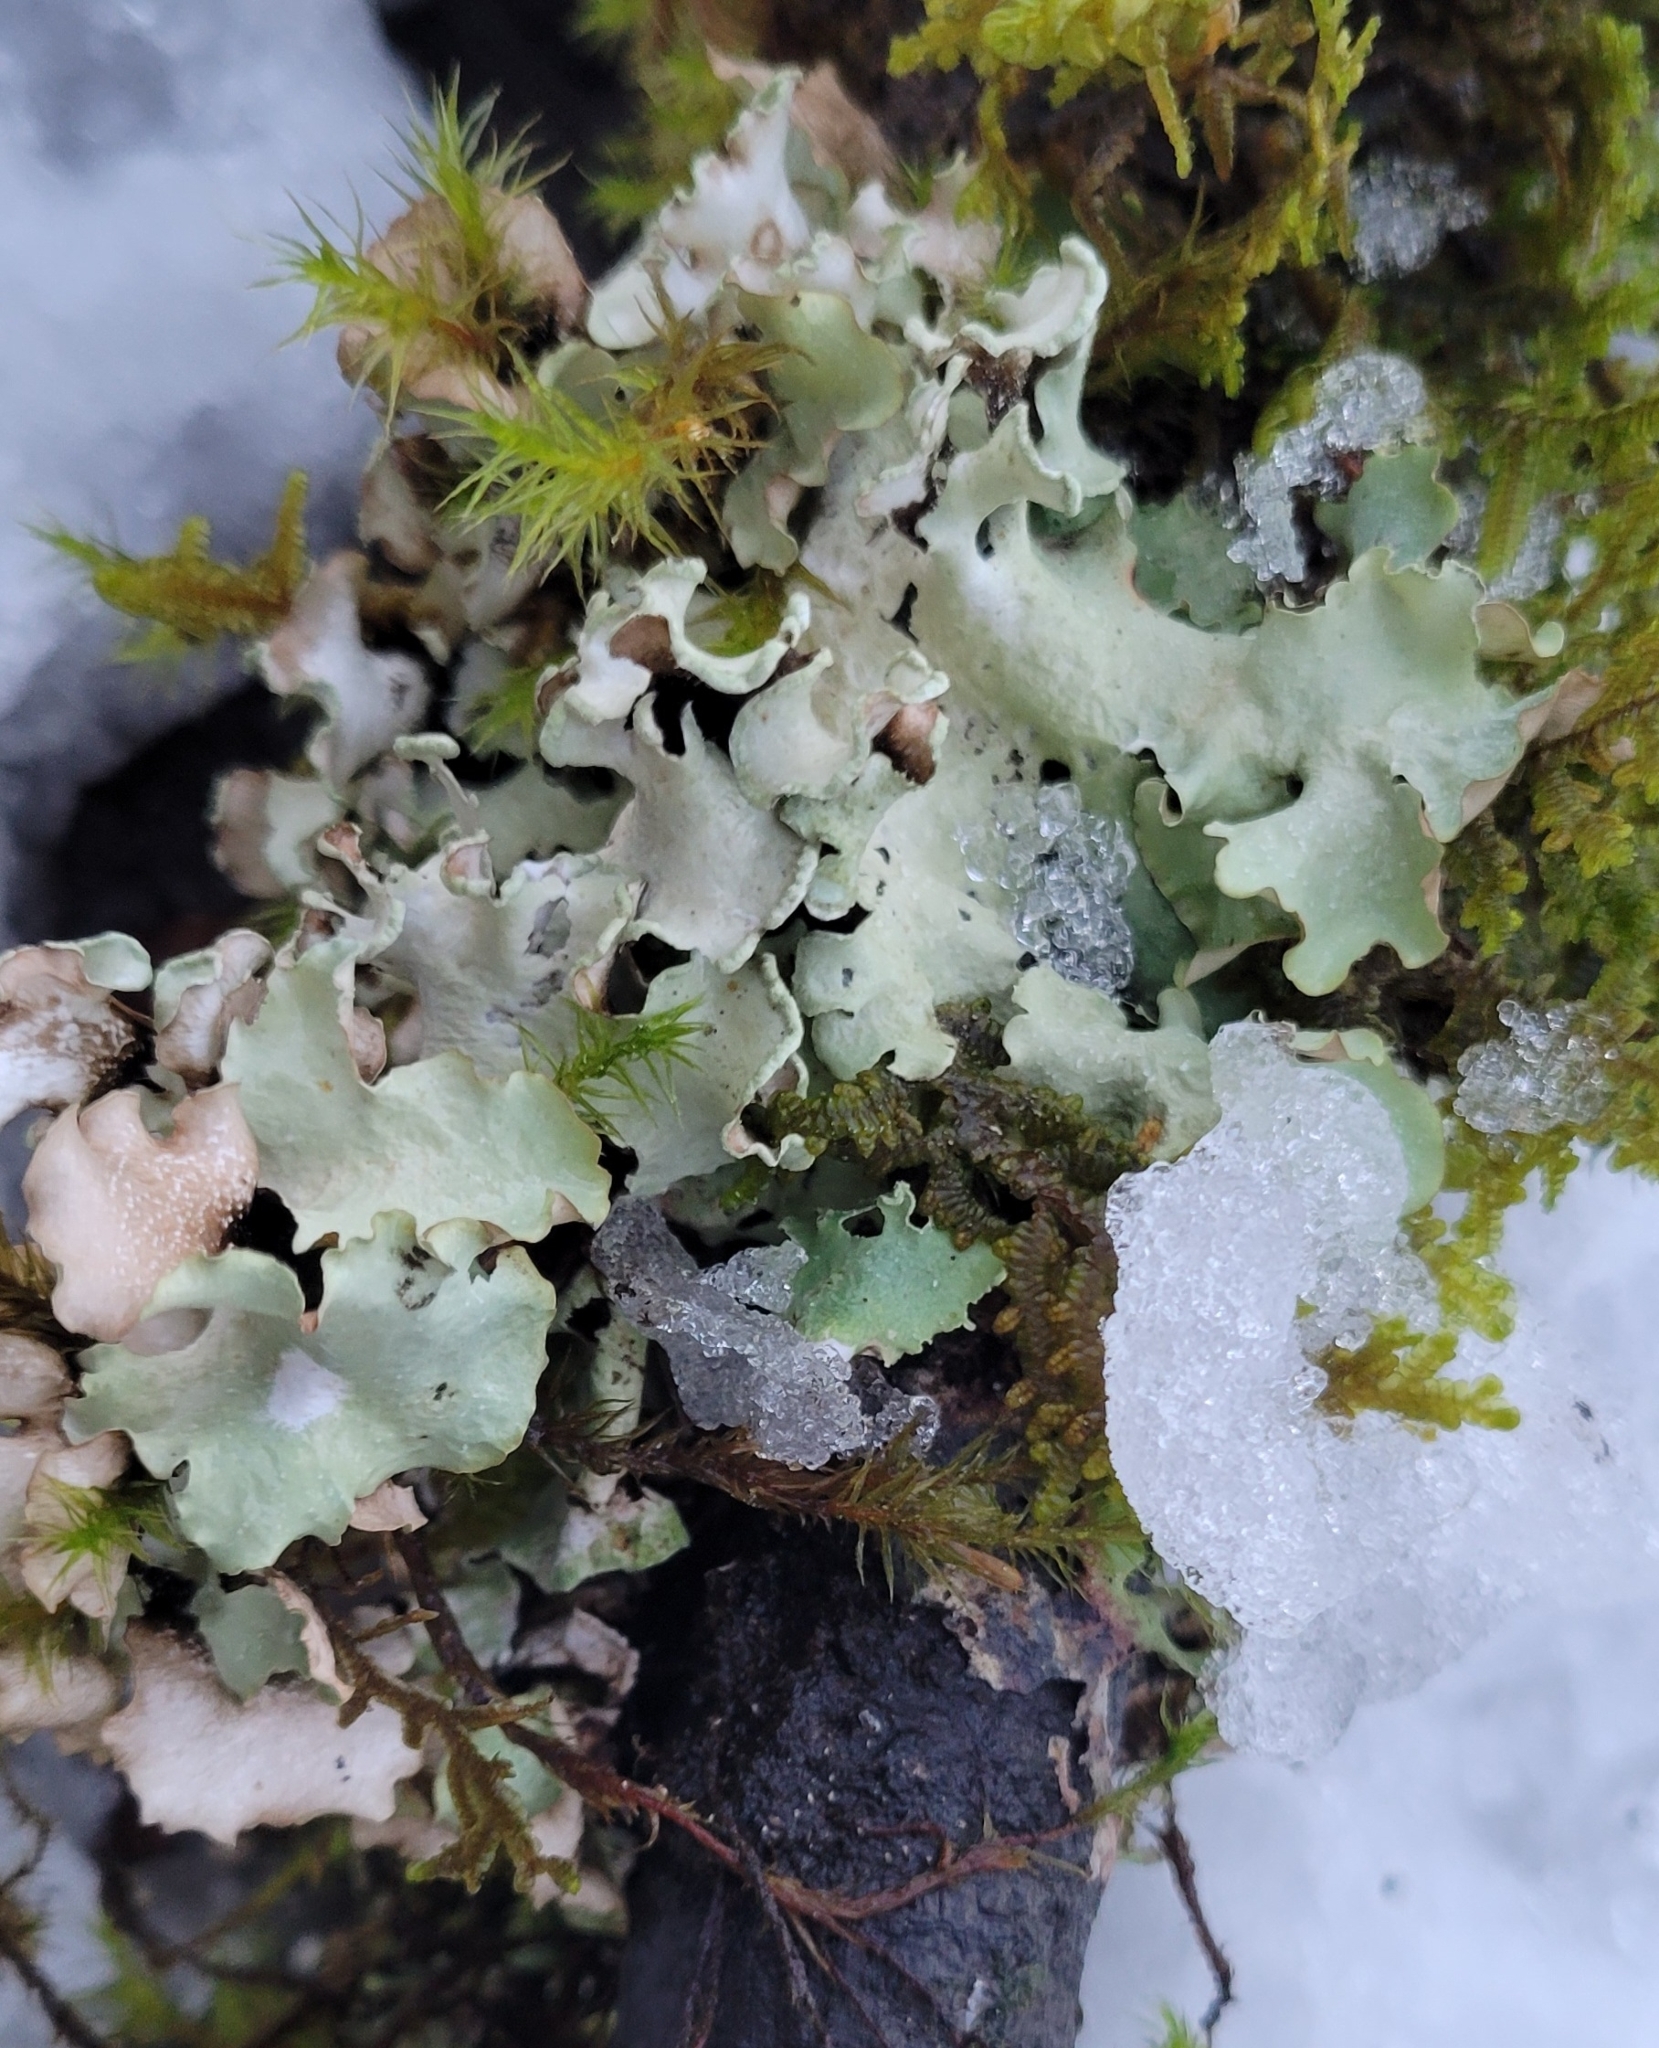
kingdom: Fungi
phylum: Ascomycota
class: Lecanoromycetes
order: Lecanorales
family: Parmeliaceae
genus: Cetrelia
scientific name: Cetrelia cetrarioides
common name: Speckled iceland lichen
